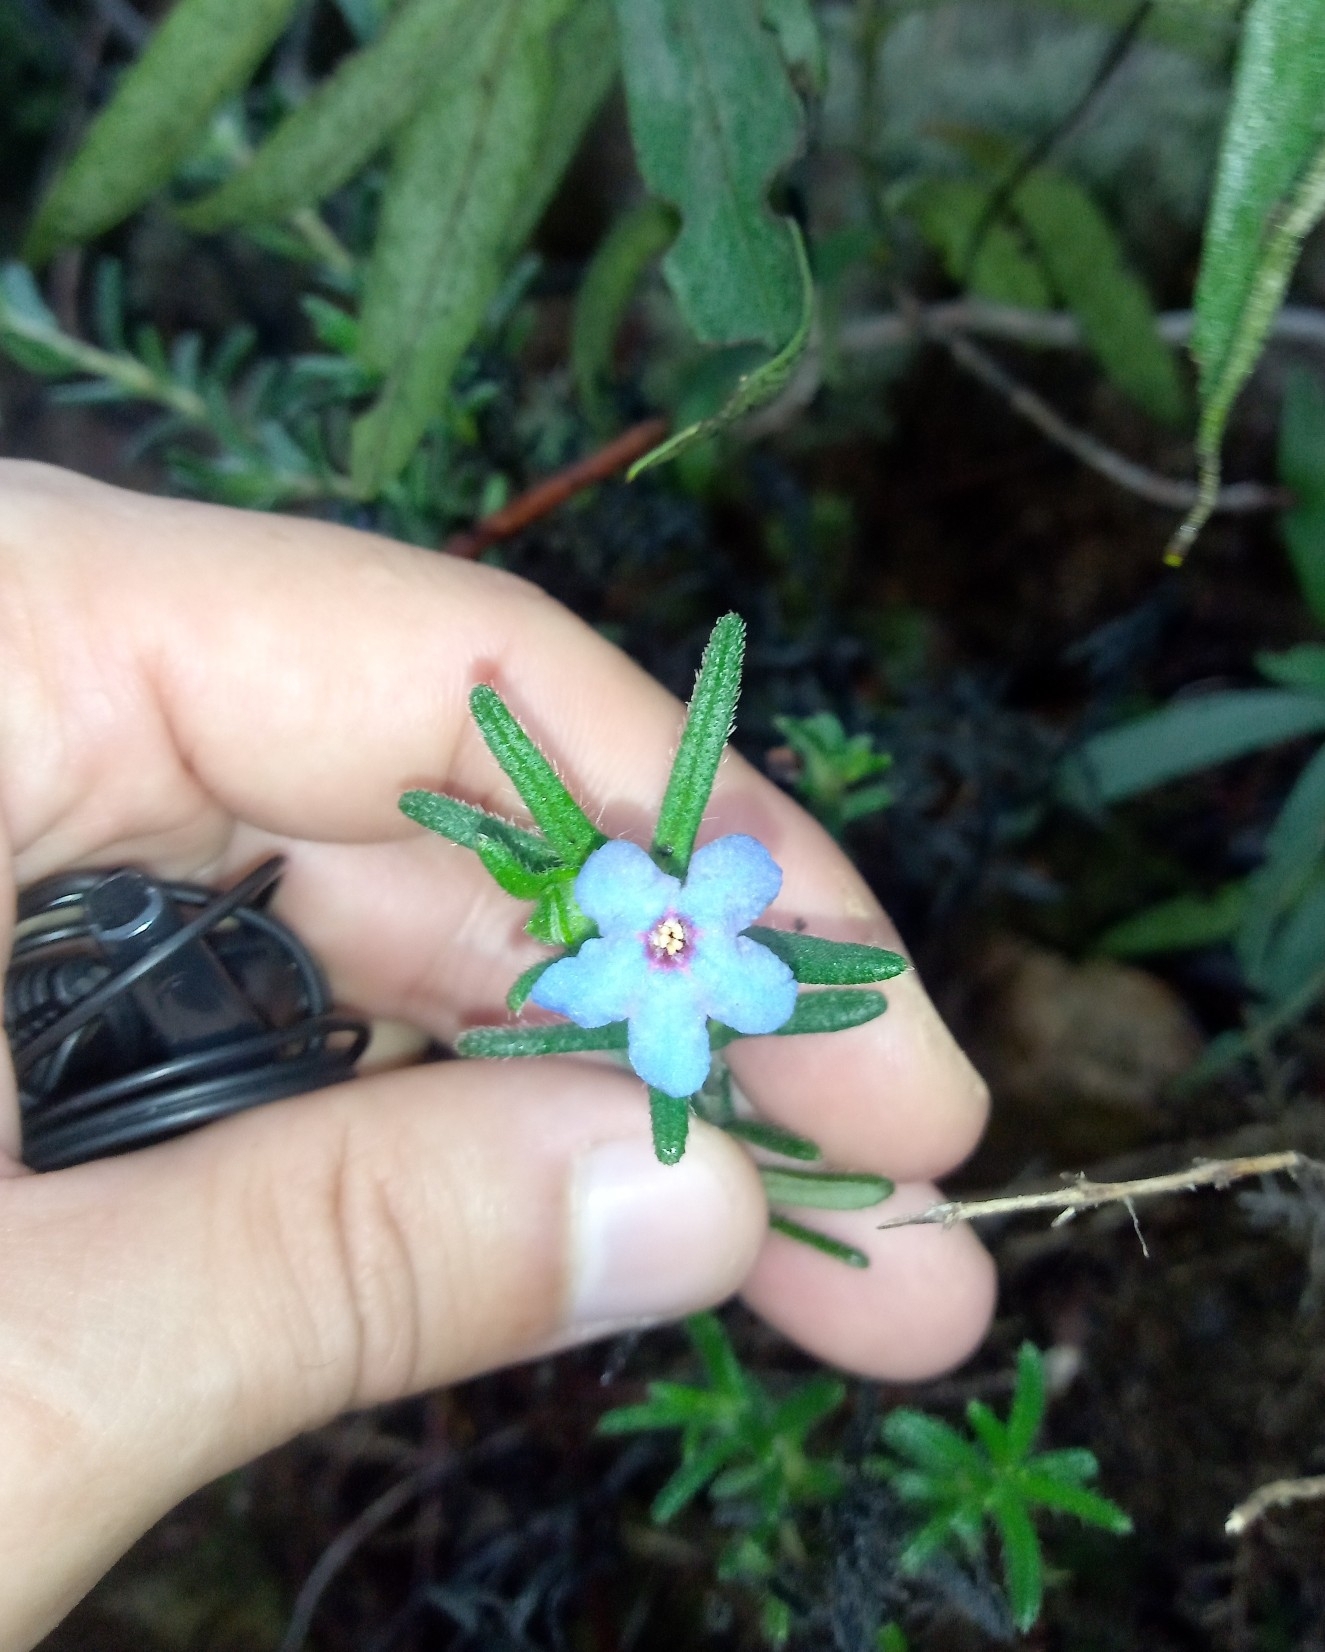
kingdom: Plantae
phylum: Tracheophyta
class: Magnoliopsida
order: Boraginales
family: Boraginaceae
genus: Glandora
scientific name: Glandora prostrata
